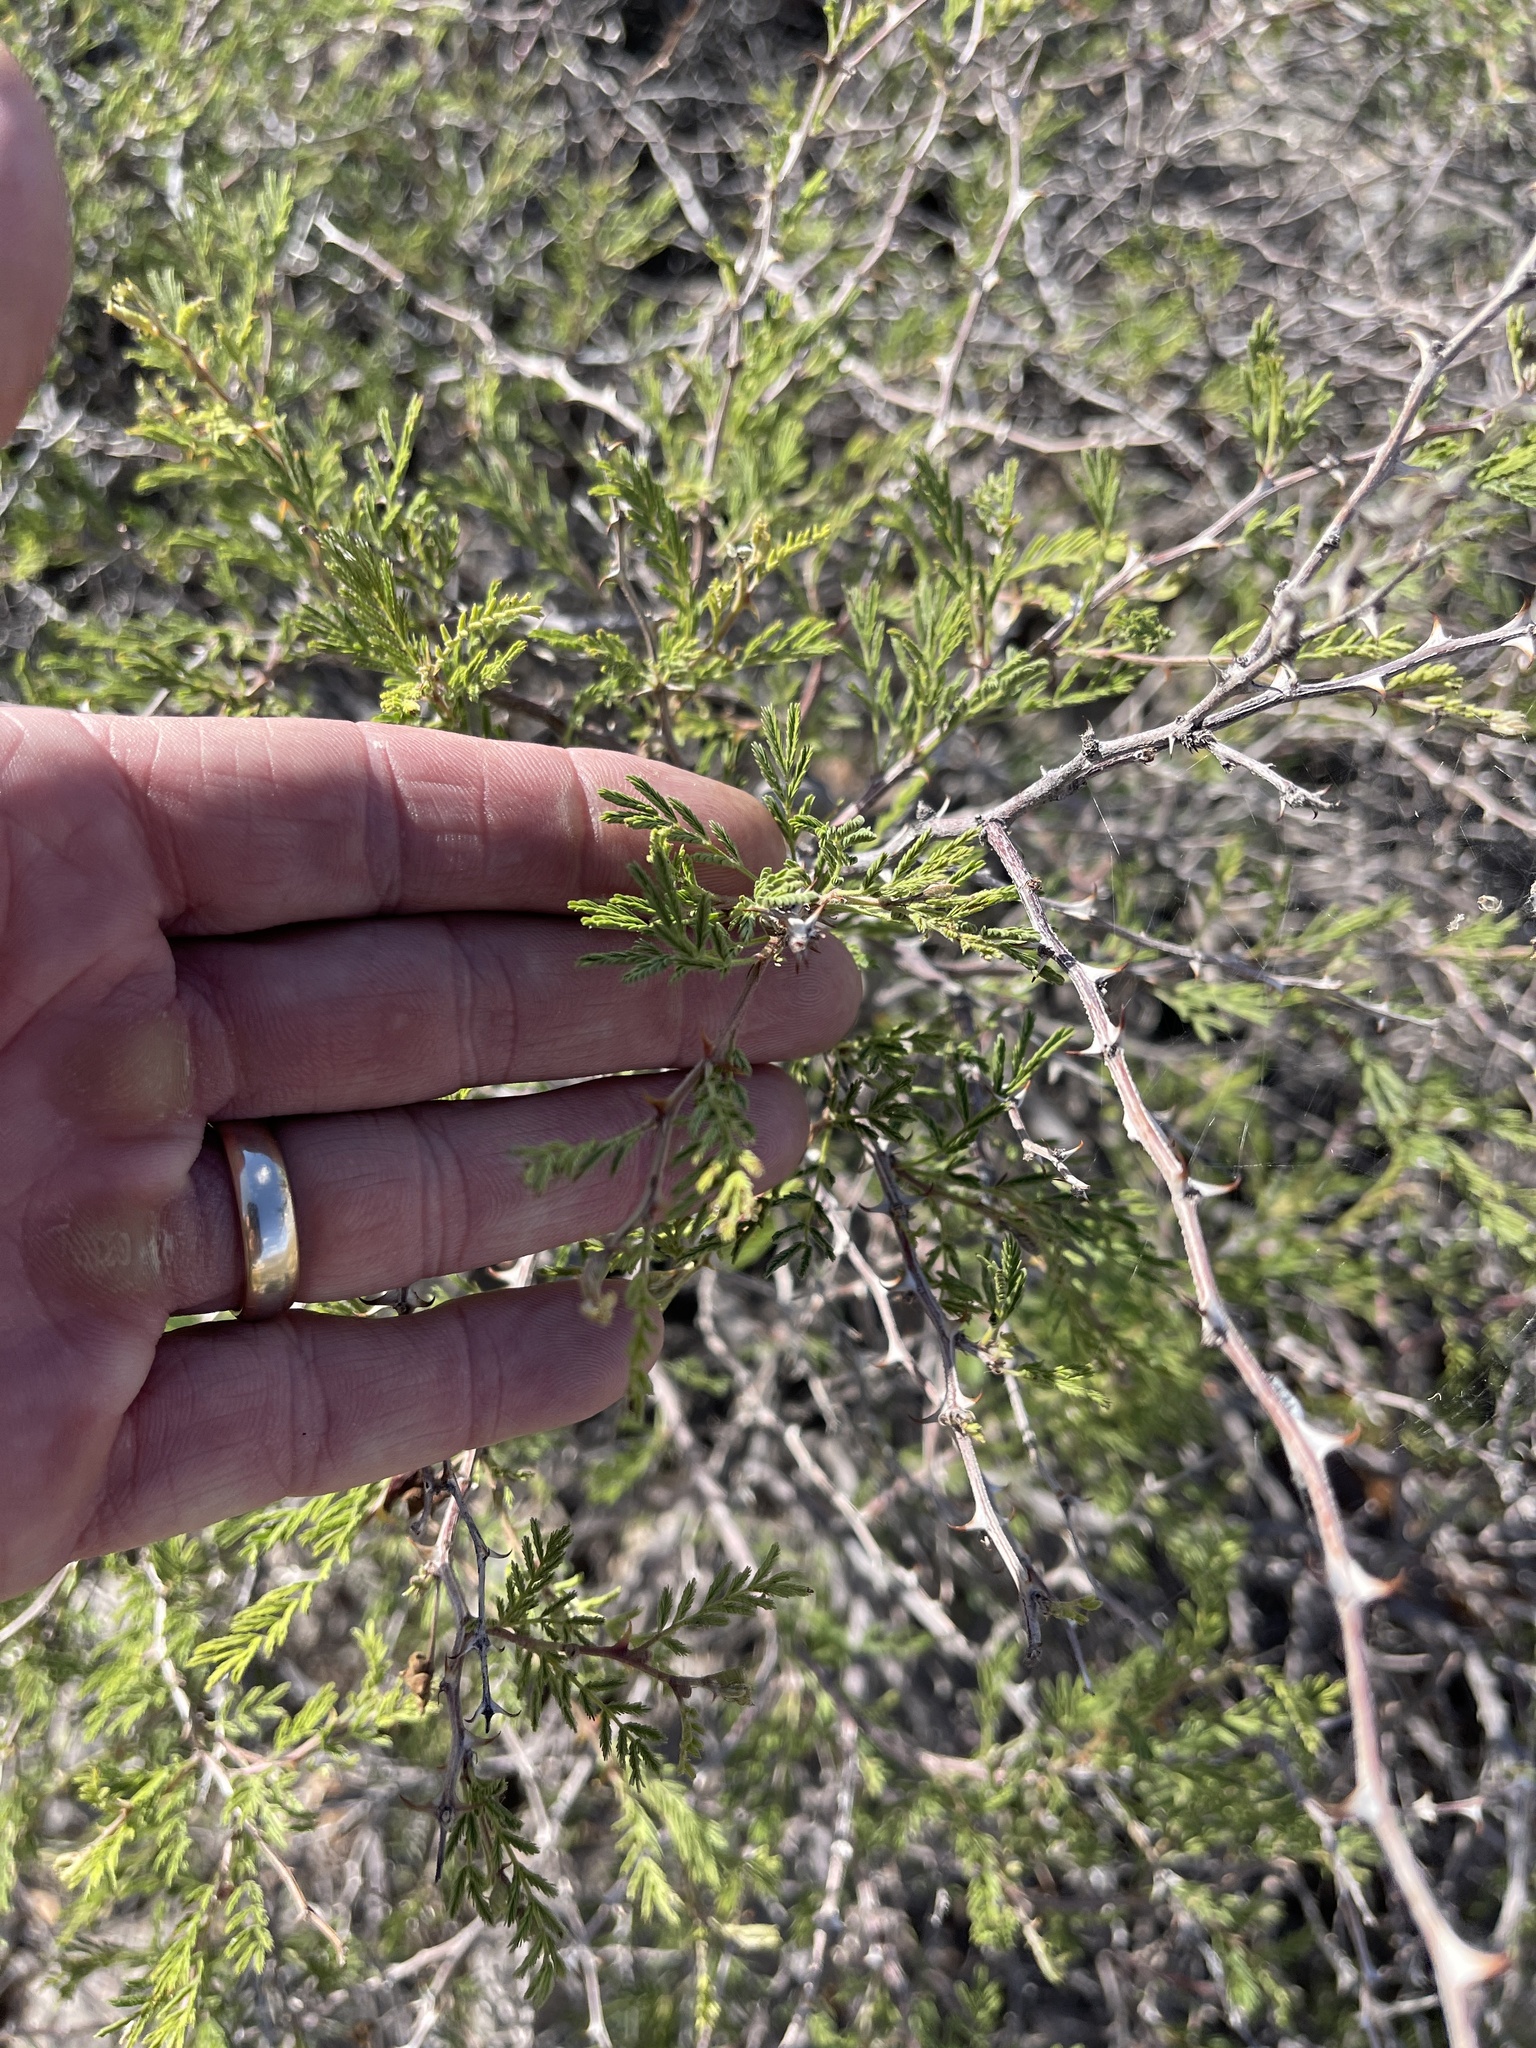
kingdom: Plantae
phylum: Tracheophyta
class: Magnoliopsida
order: Fabales
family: Fabaceae
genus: Mimosa
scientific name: Mimosa aculeaticarpa
